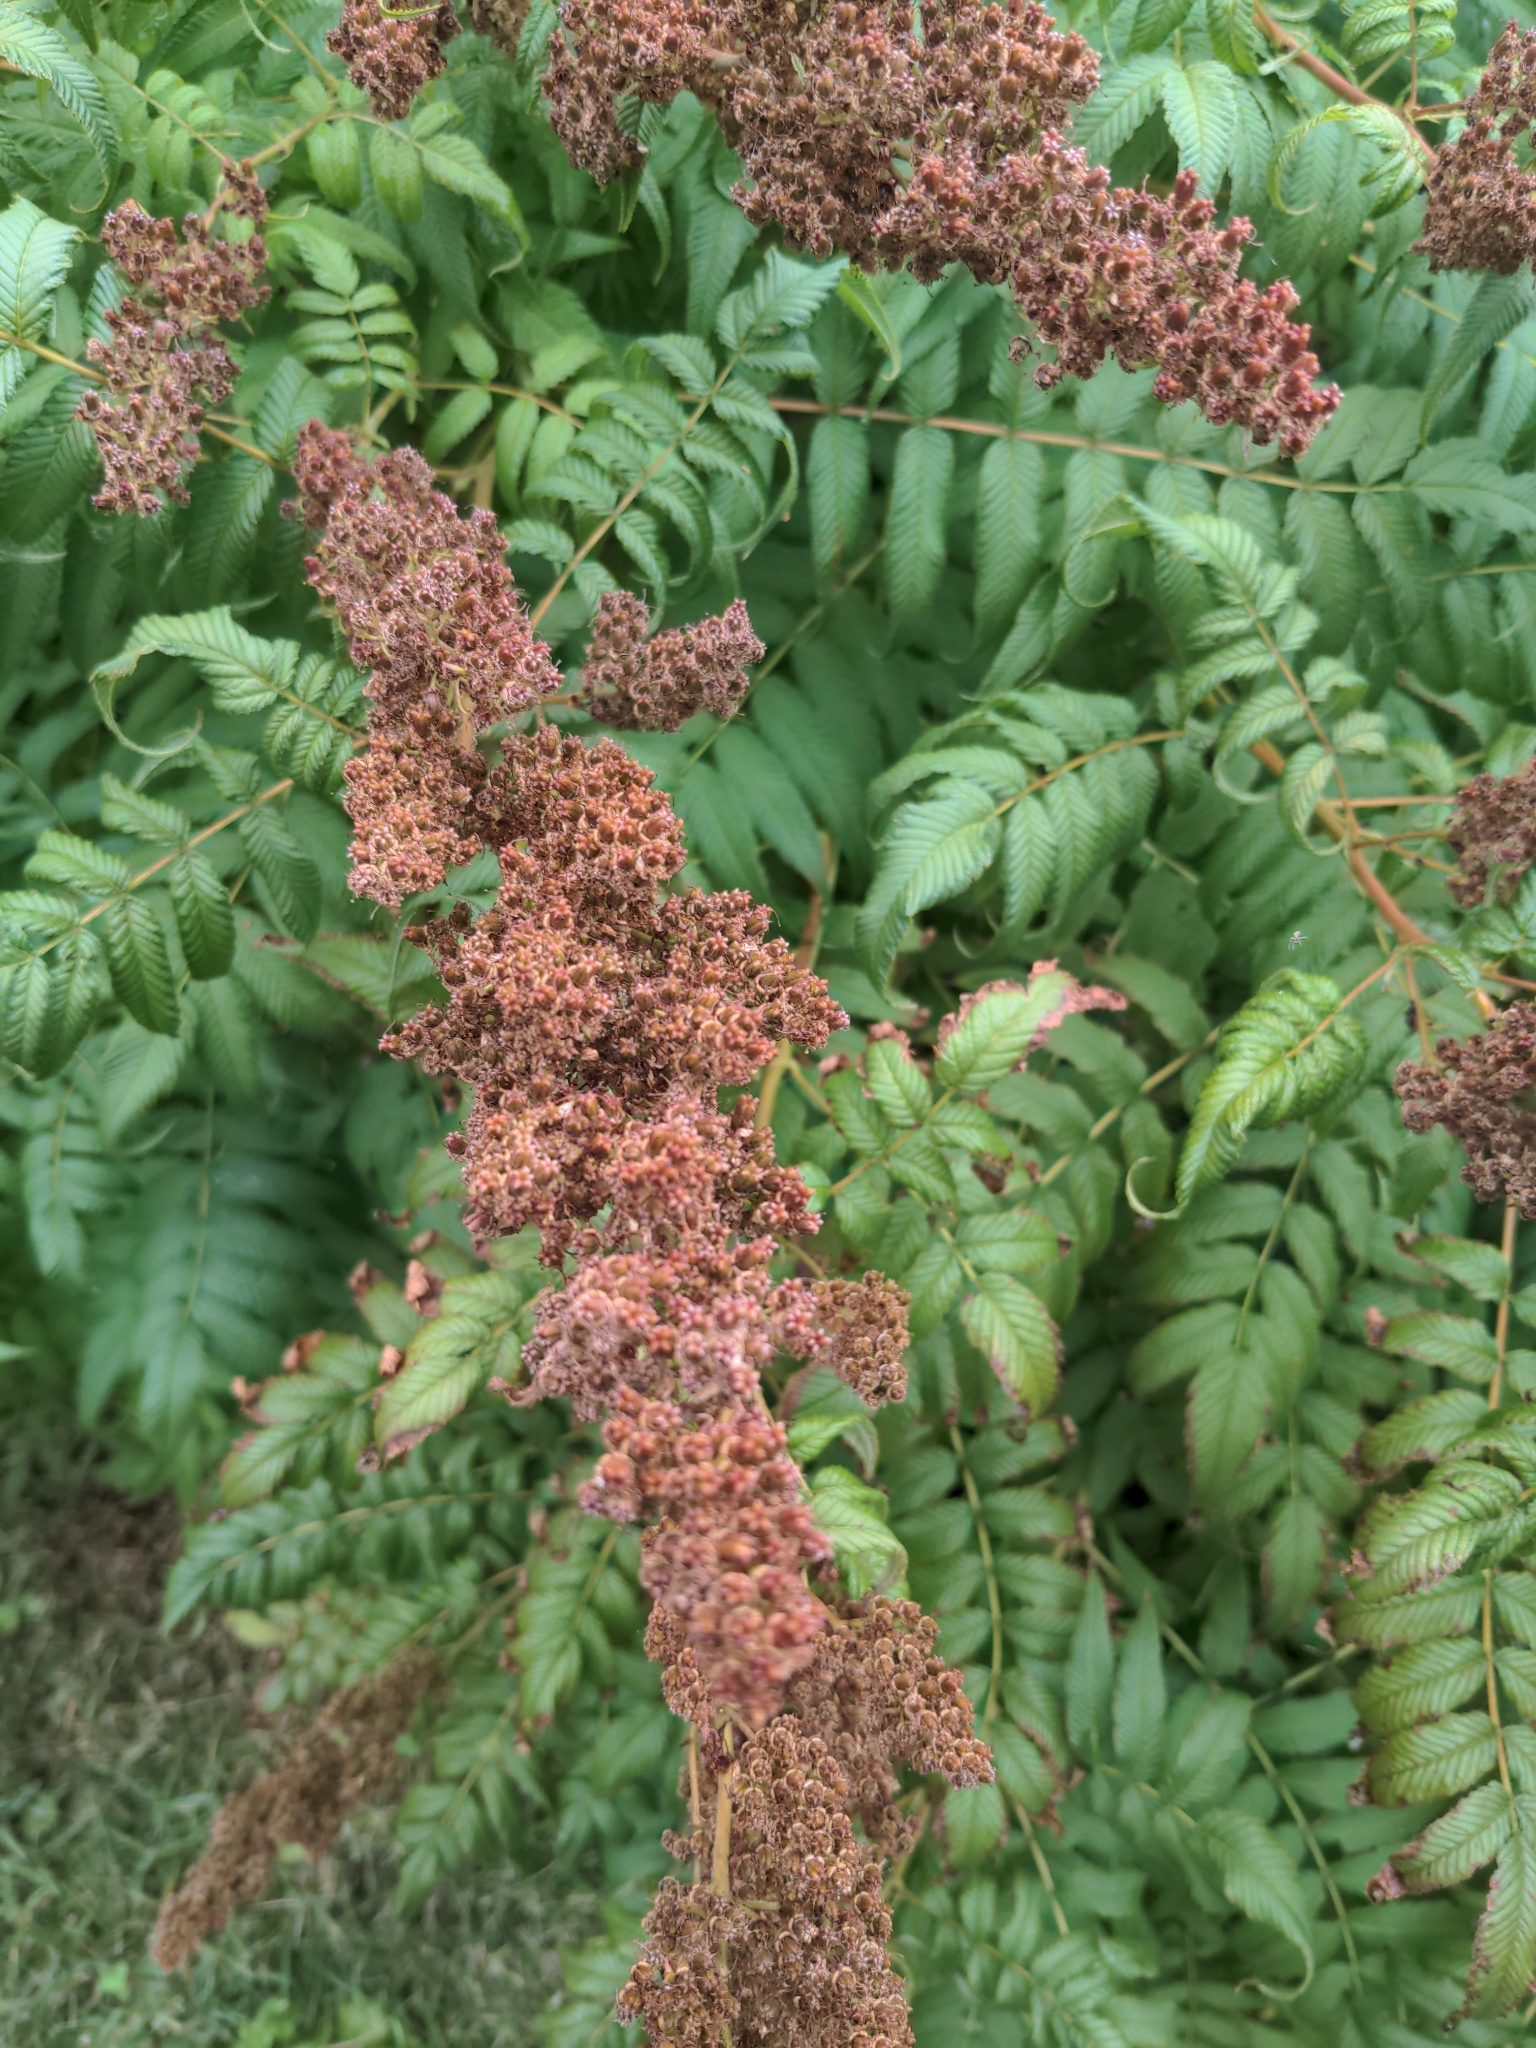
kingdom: Plantae
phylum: Tracheophyta
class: Magnoliopsida
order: Rosales
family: Rosaceae
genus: Sorbaria
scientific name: Sorbaria sorbifolia
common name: False spiraea
